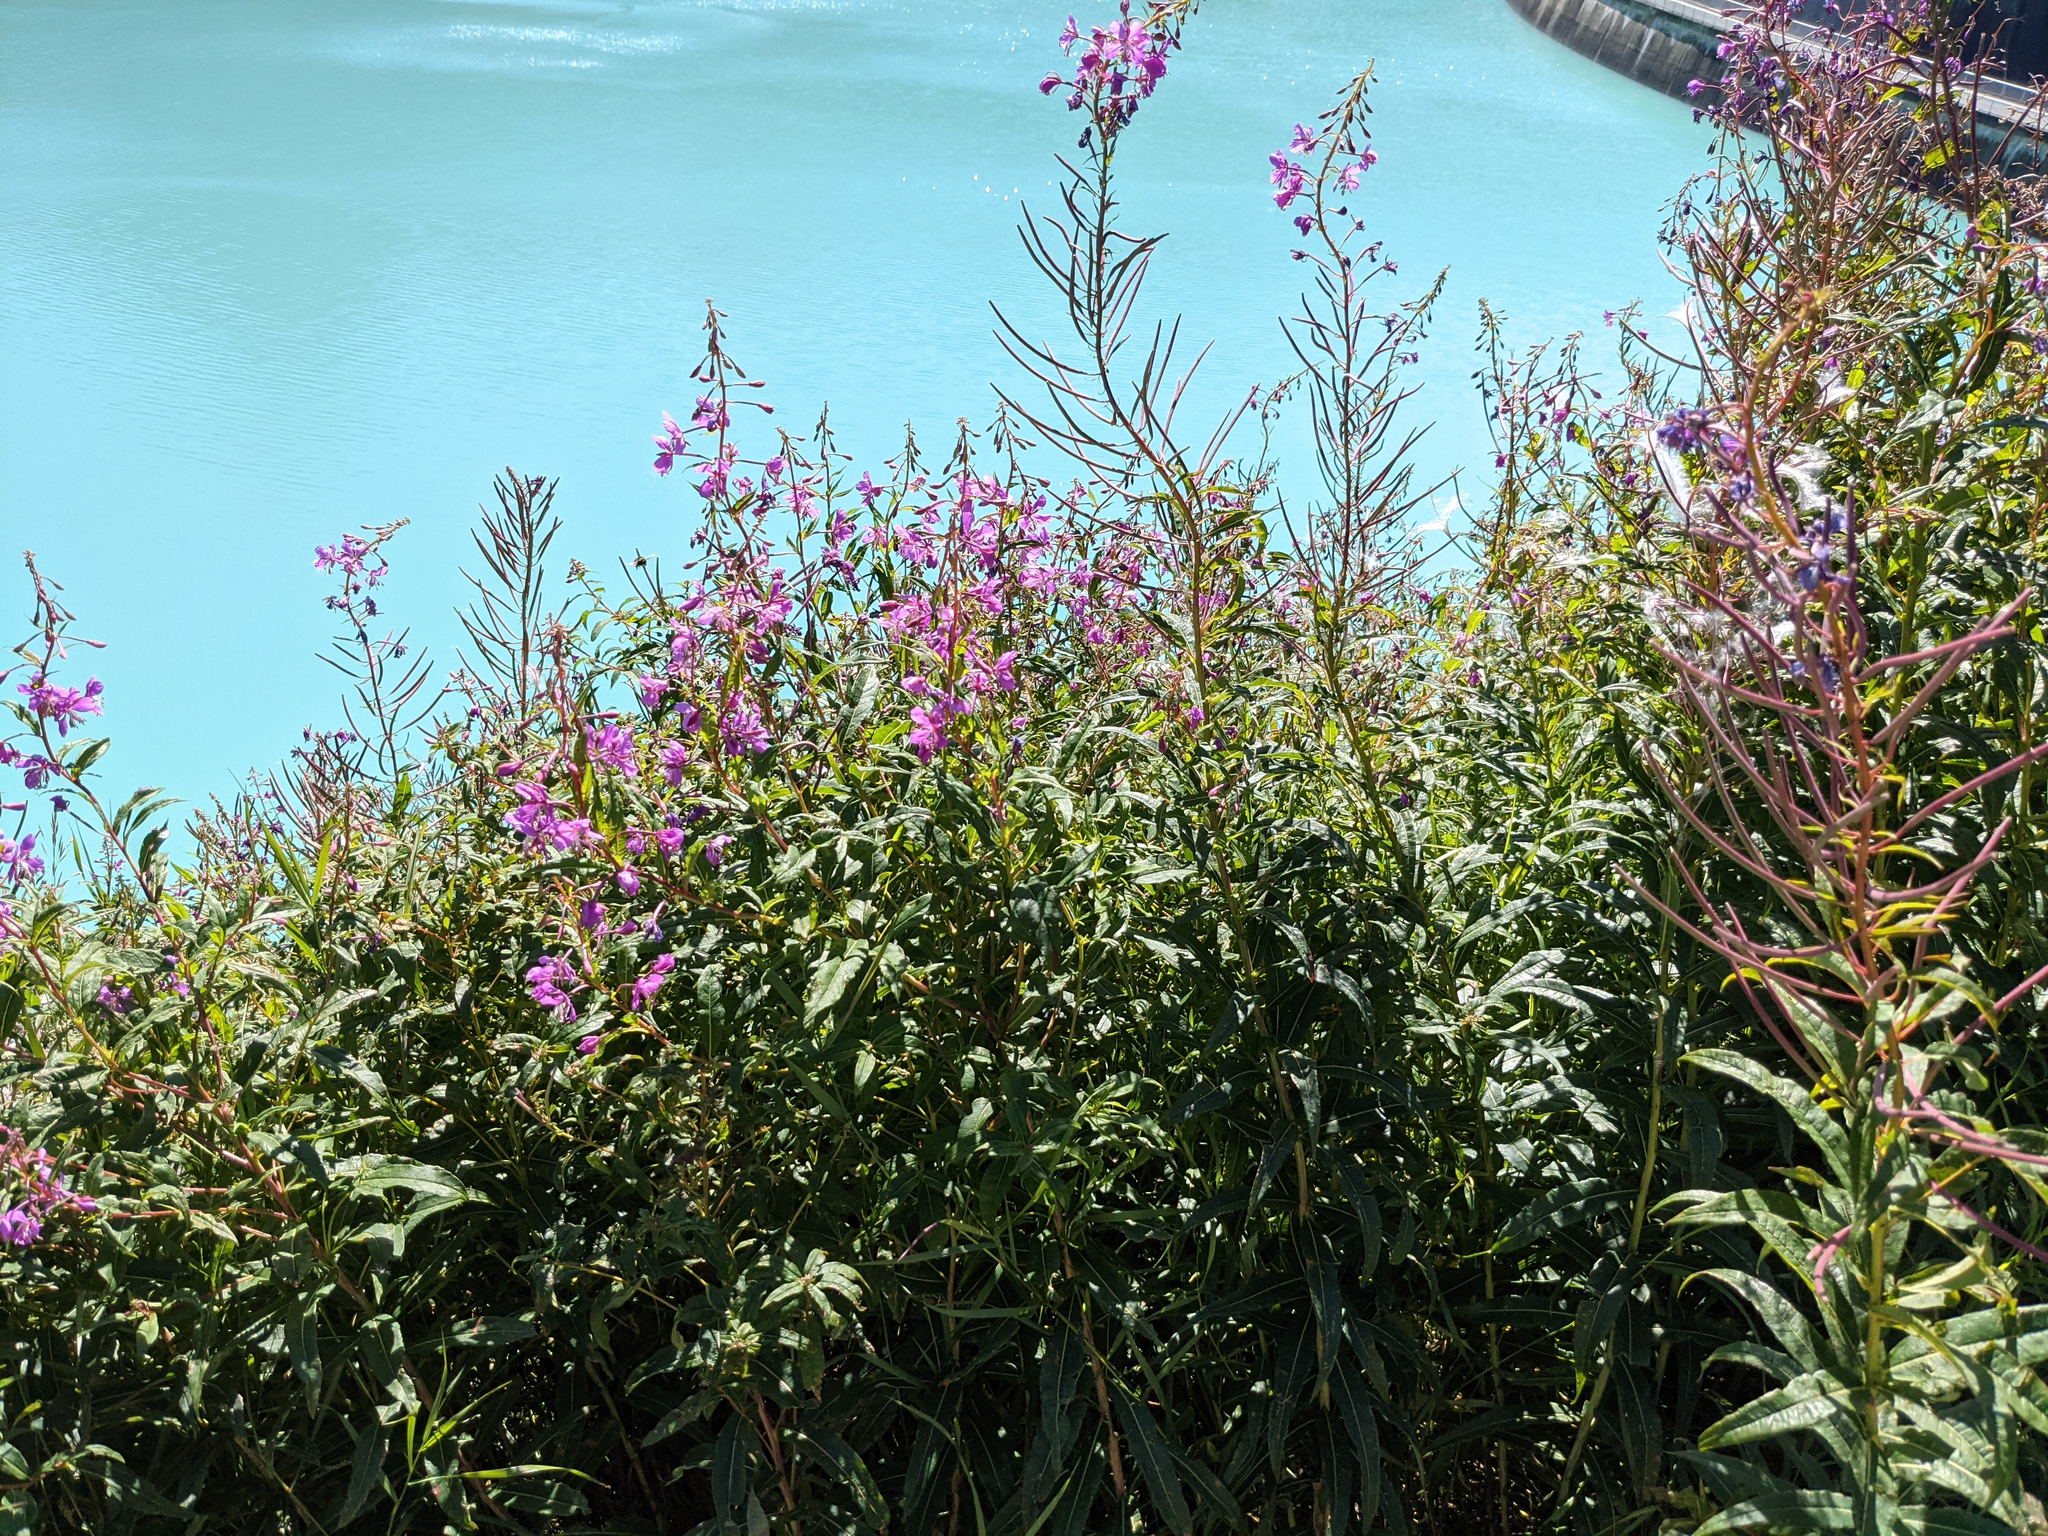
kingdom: Plantae
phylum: Tracheophyta
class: Magnoliopsida
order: Myrtales
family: Onagraceae
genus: Chamaenerion
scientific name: Chamaenerion angustifolium
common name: Fireweed
